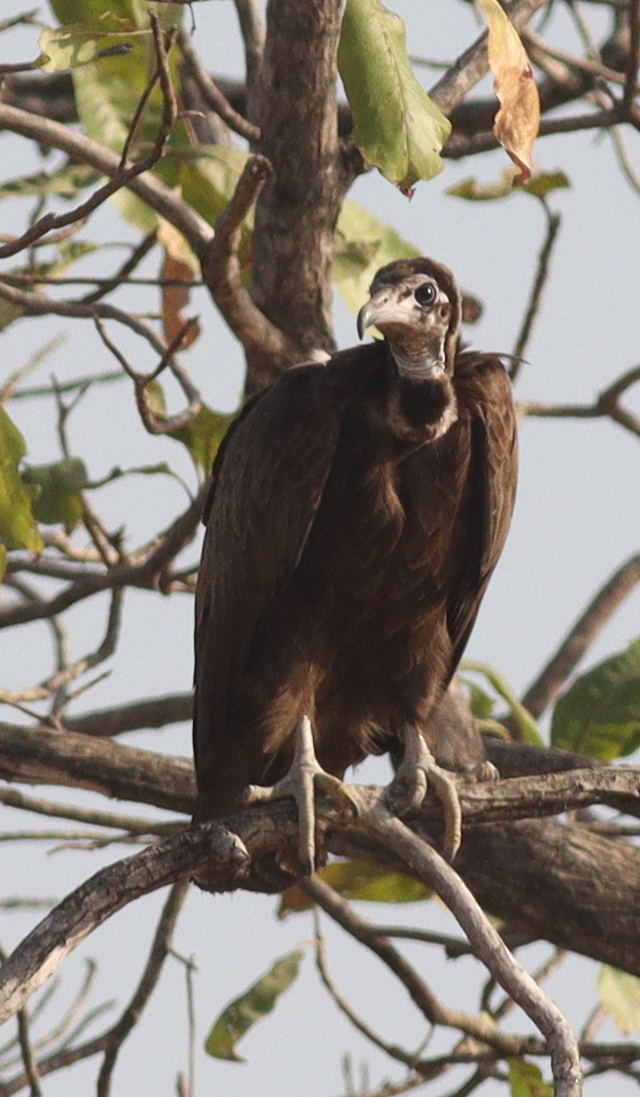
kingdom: Animalia
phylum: Chordata
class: Aves
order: Accipitriformes
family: Accipitridae
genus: Necrosyrtes
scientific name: Necrosyrtes monachus
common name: Hooded vulture
